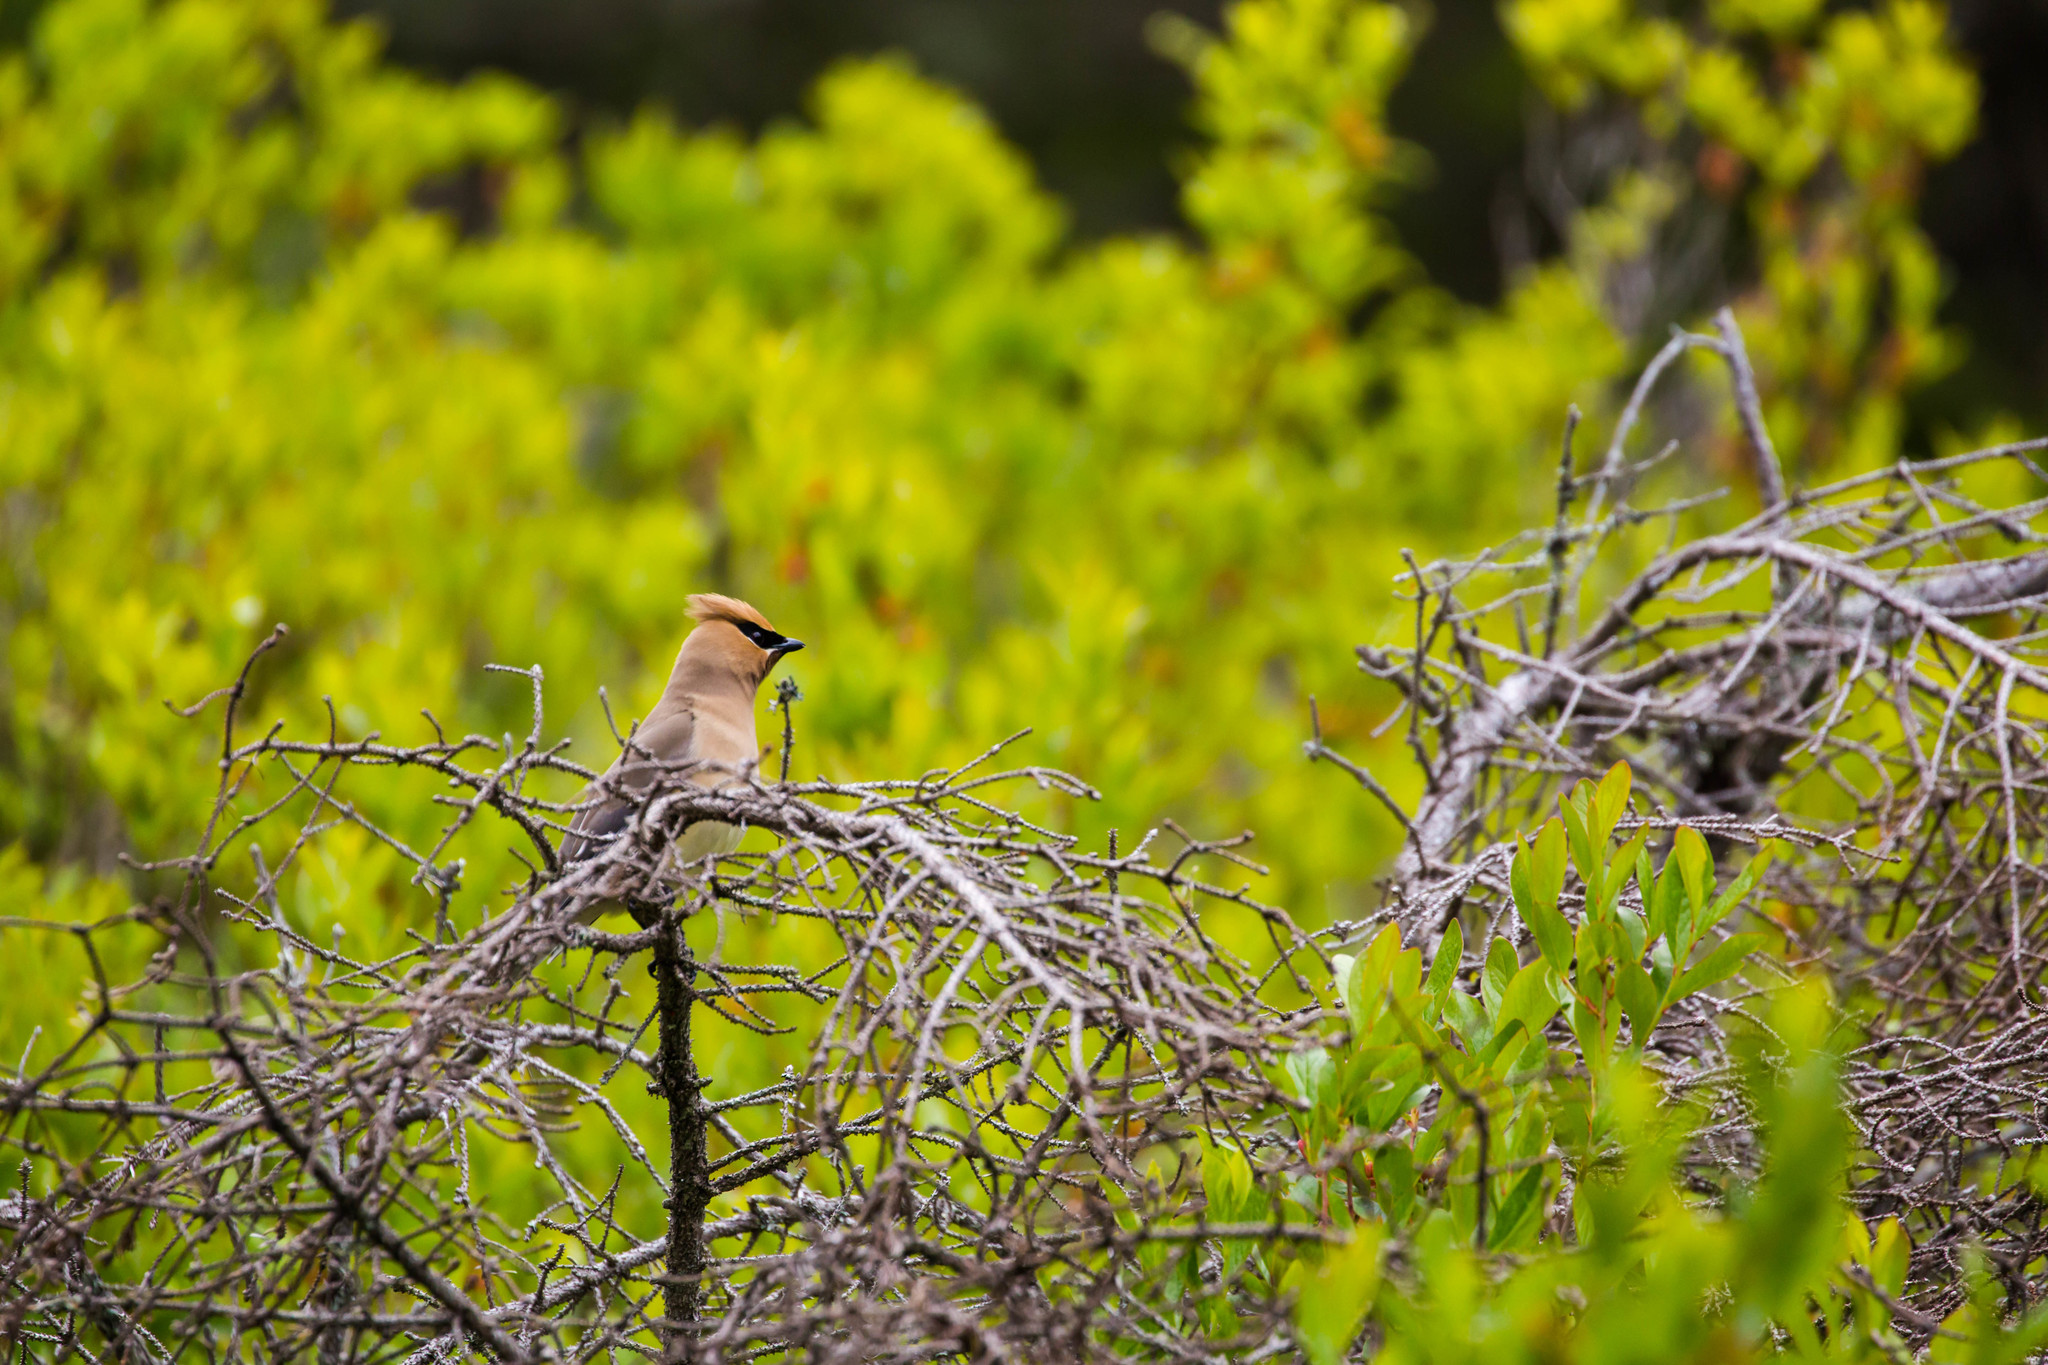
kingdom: Animalia
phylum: Chordata
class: Aves
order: Passeriformes
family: Bombycillidae
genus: Bombycilla
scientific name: Bombycilla cedrorum
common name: Cedar waxwing
